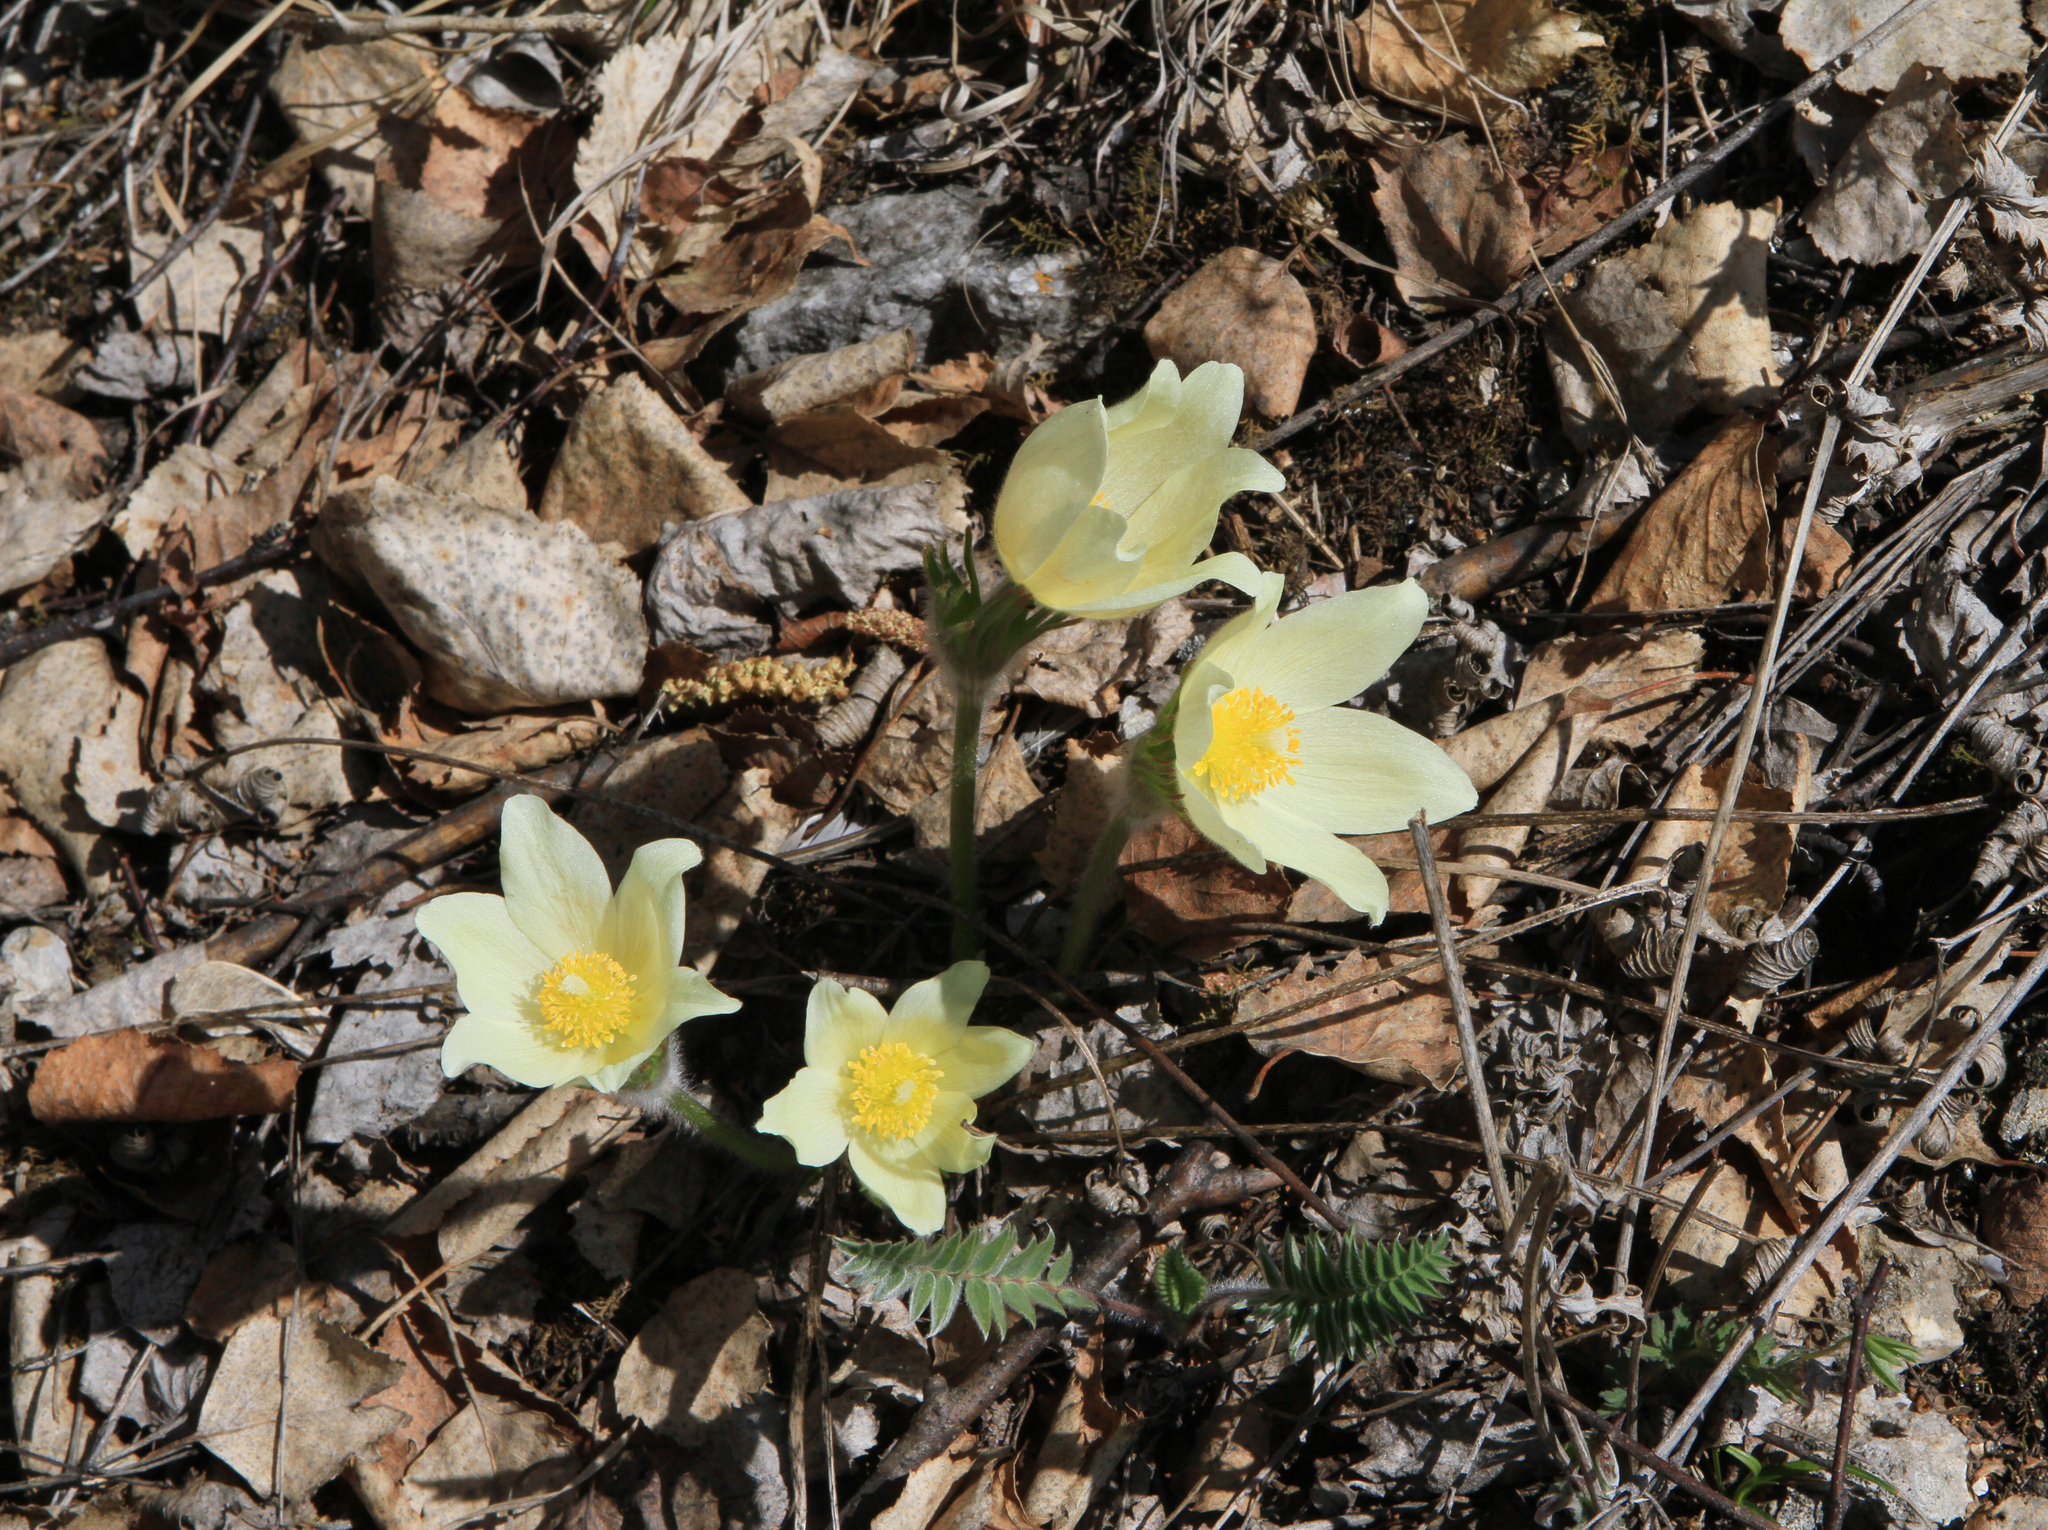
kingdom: Plantae
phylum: Tracheophyta
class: Magnoliopsida
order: Ranunculales
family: Ranunculaceae
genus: Pulsatilla
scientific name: Pulsatilla patens
